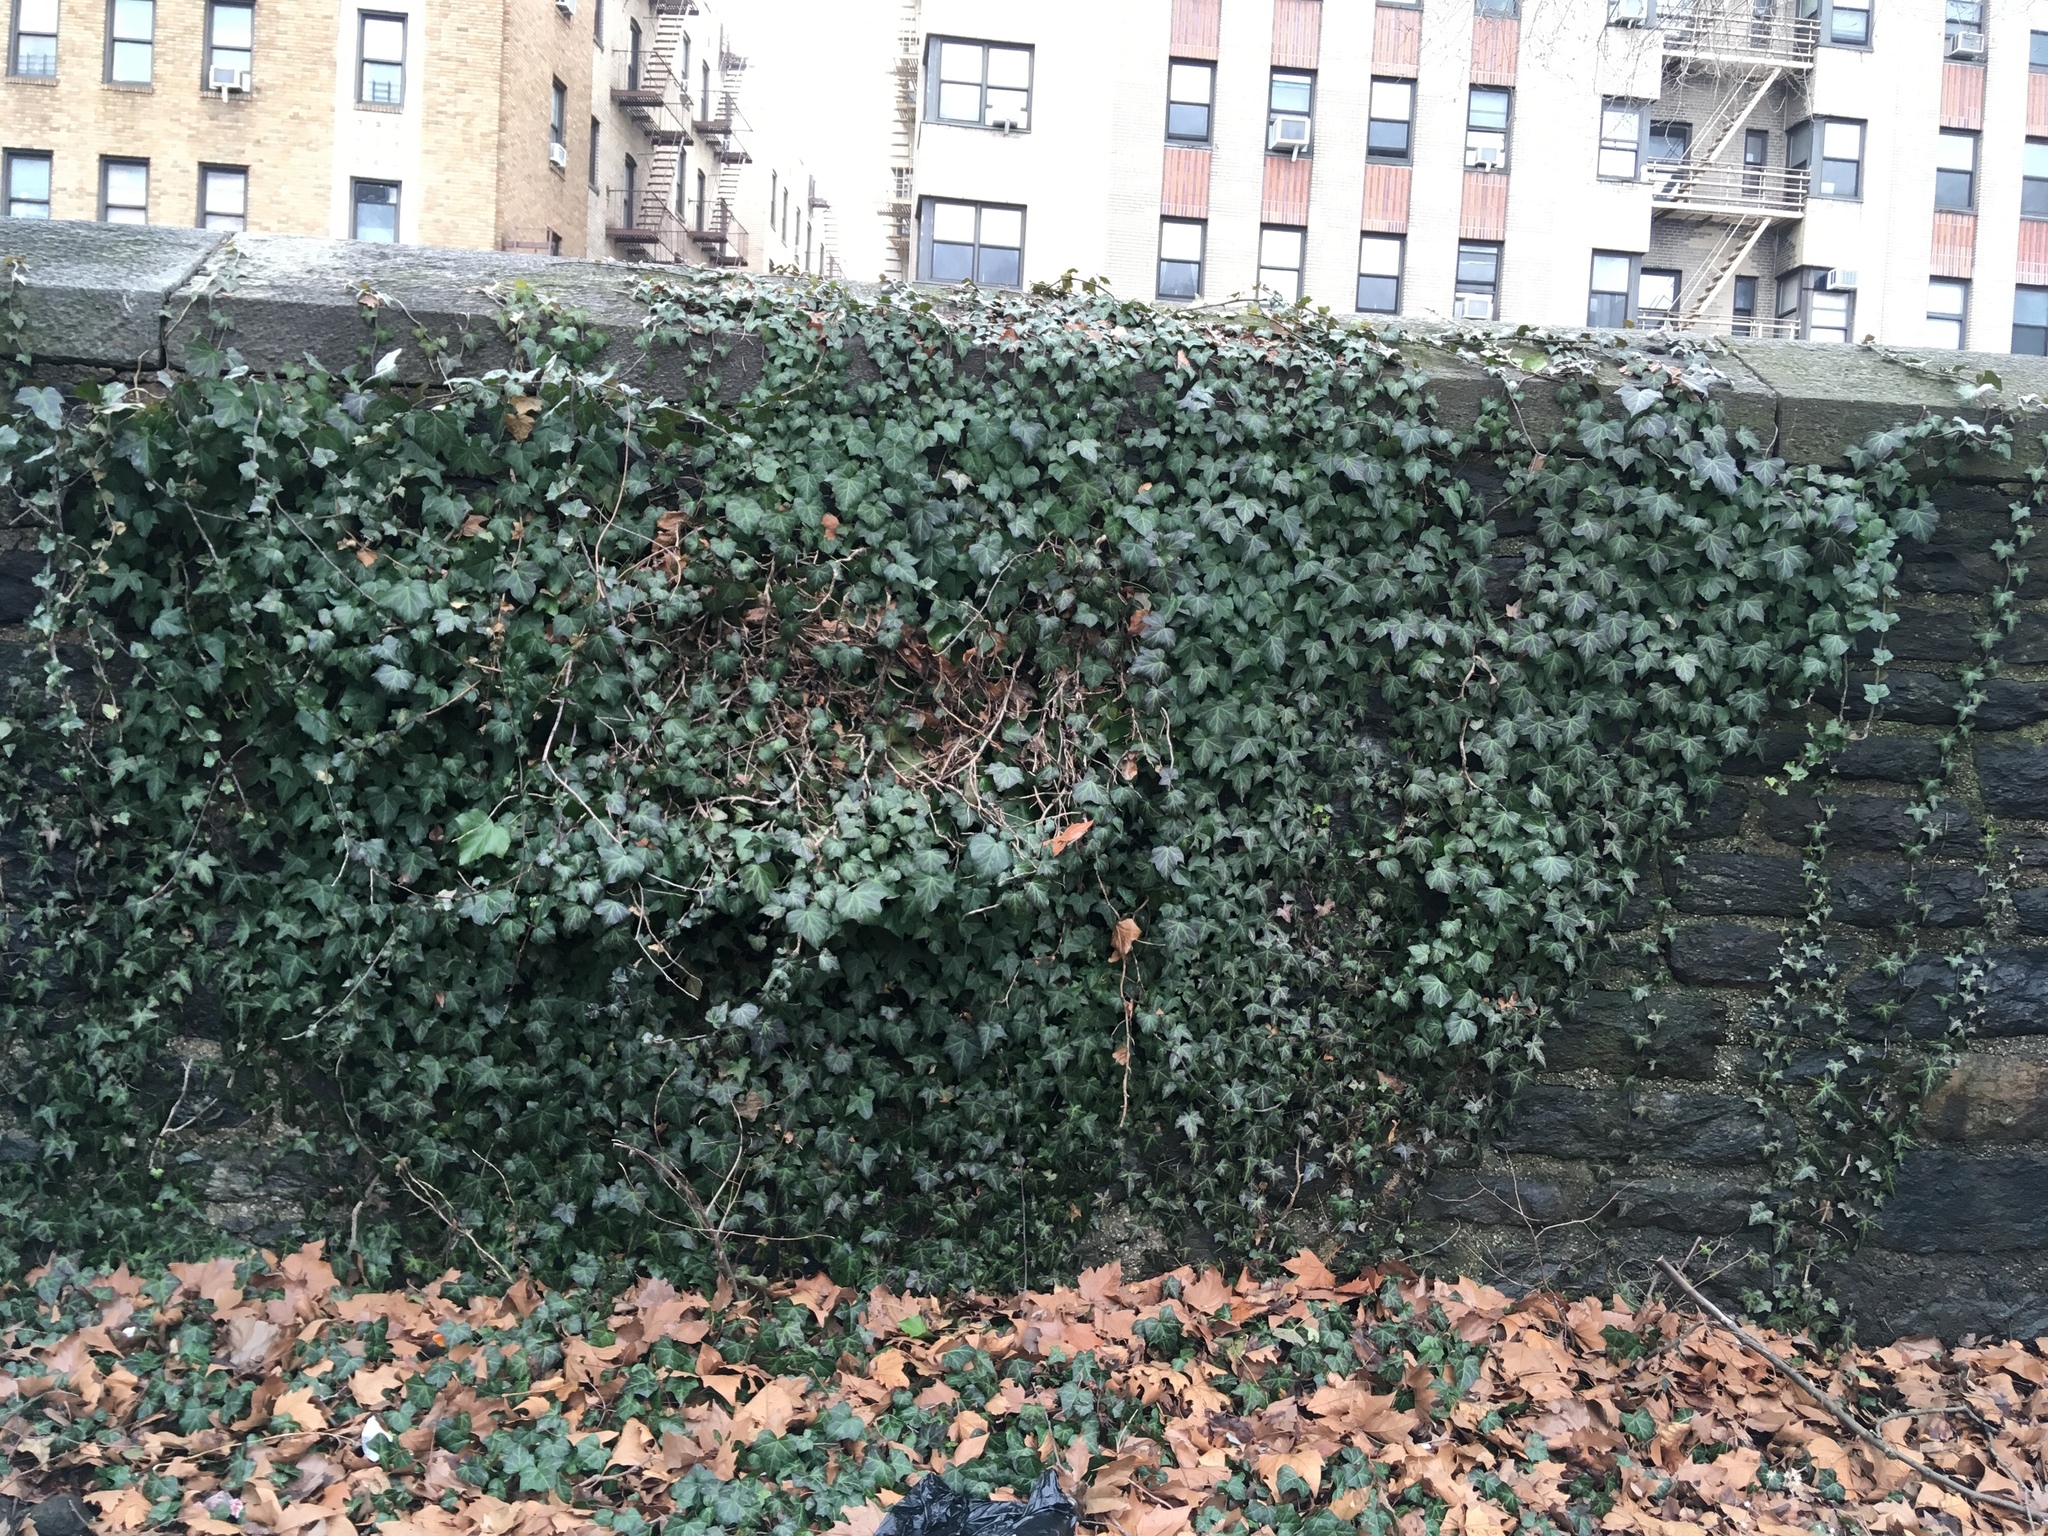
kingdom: Plantae
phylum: Tracheophyta
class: Magnoliopsida
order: Apiales
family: Araliaceae
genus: Hedera
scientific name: Hedera helix
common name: Ivy
